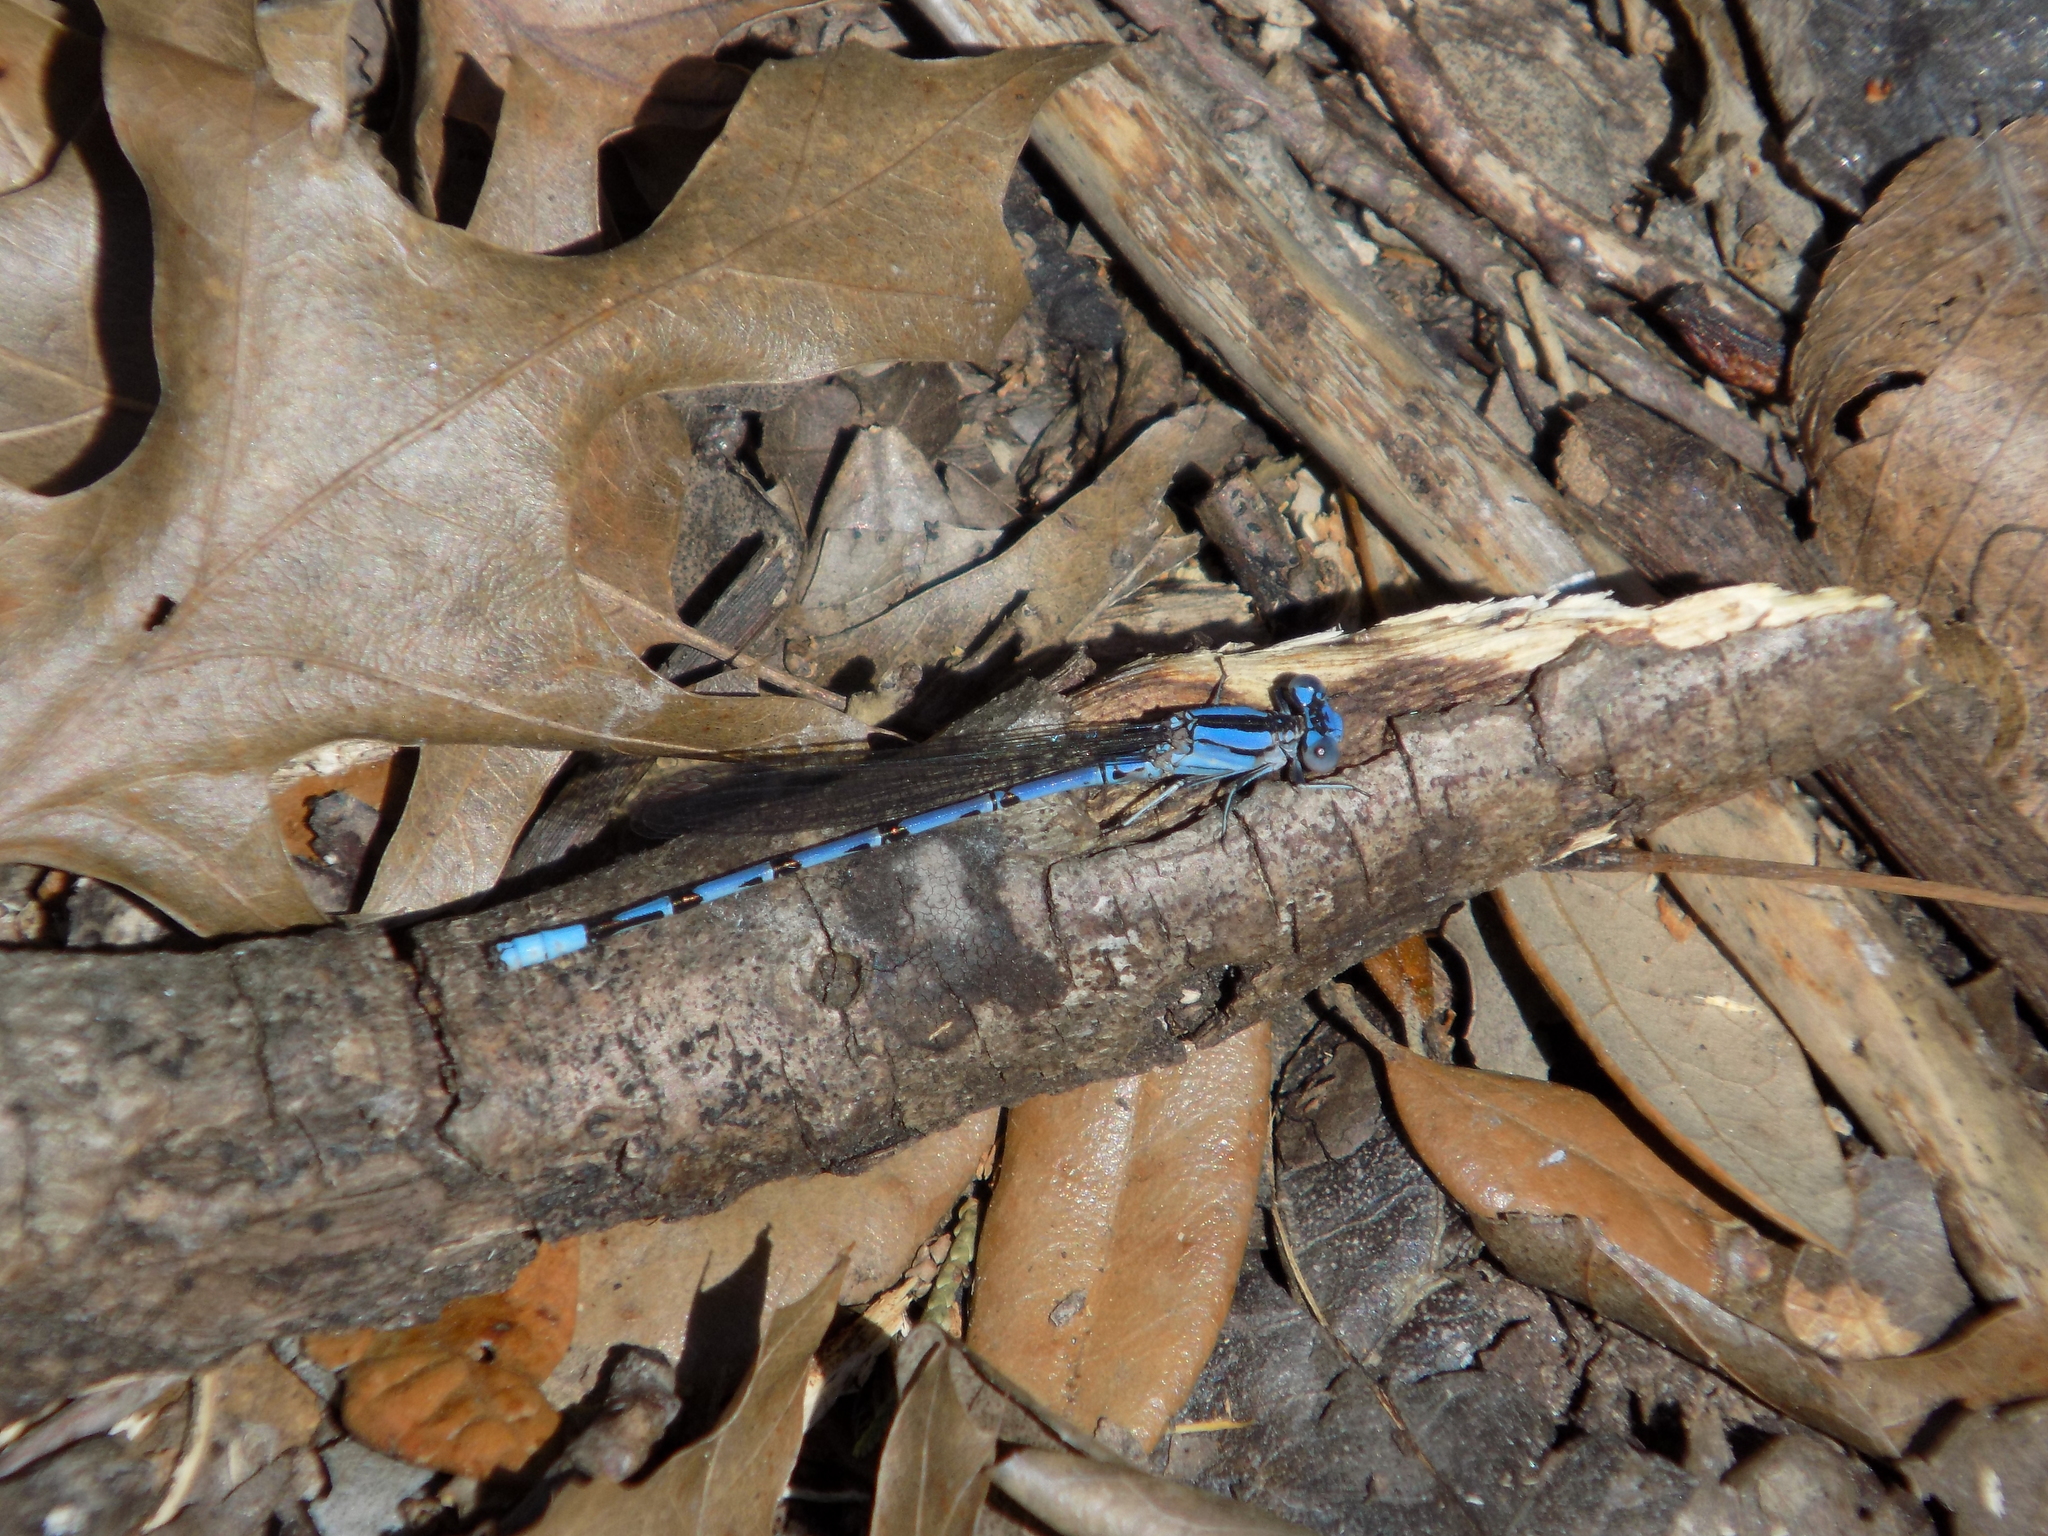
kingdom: Animalia
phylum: Arthropoda
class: Insecta
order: Odonata
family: Coenagrionidae
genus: Argia
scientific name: Argia funebris
